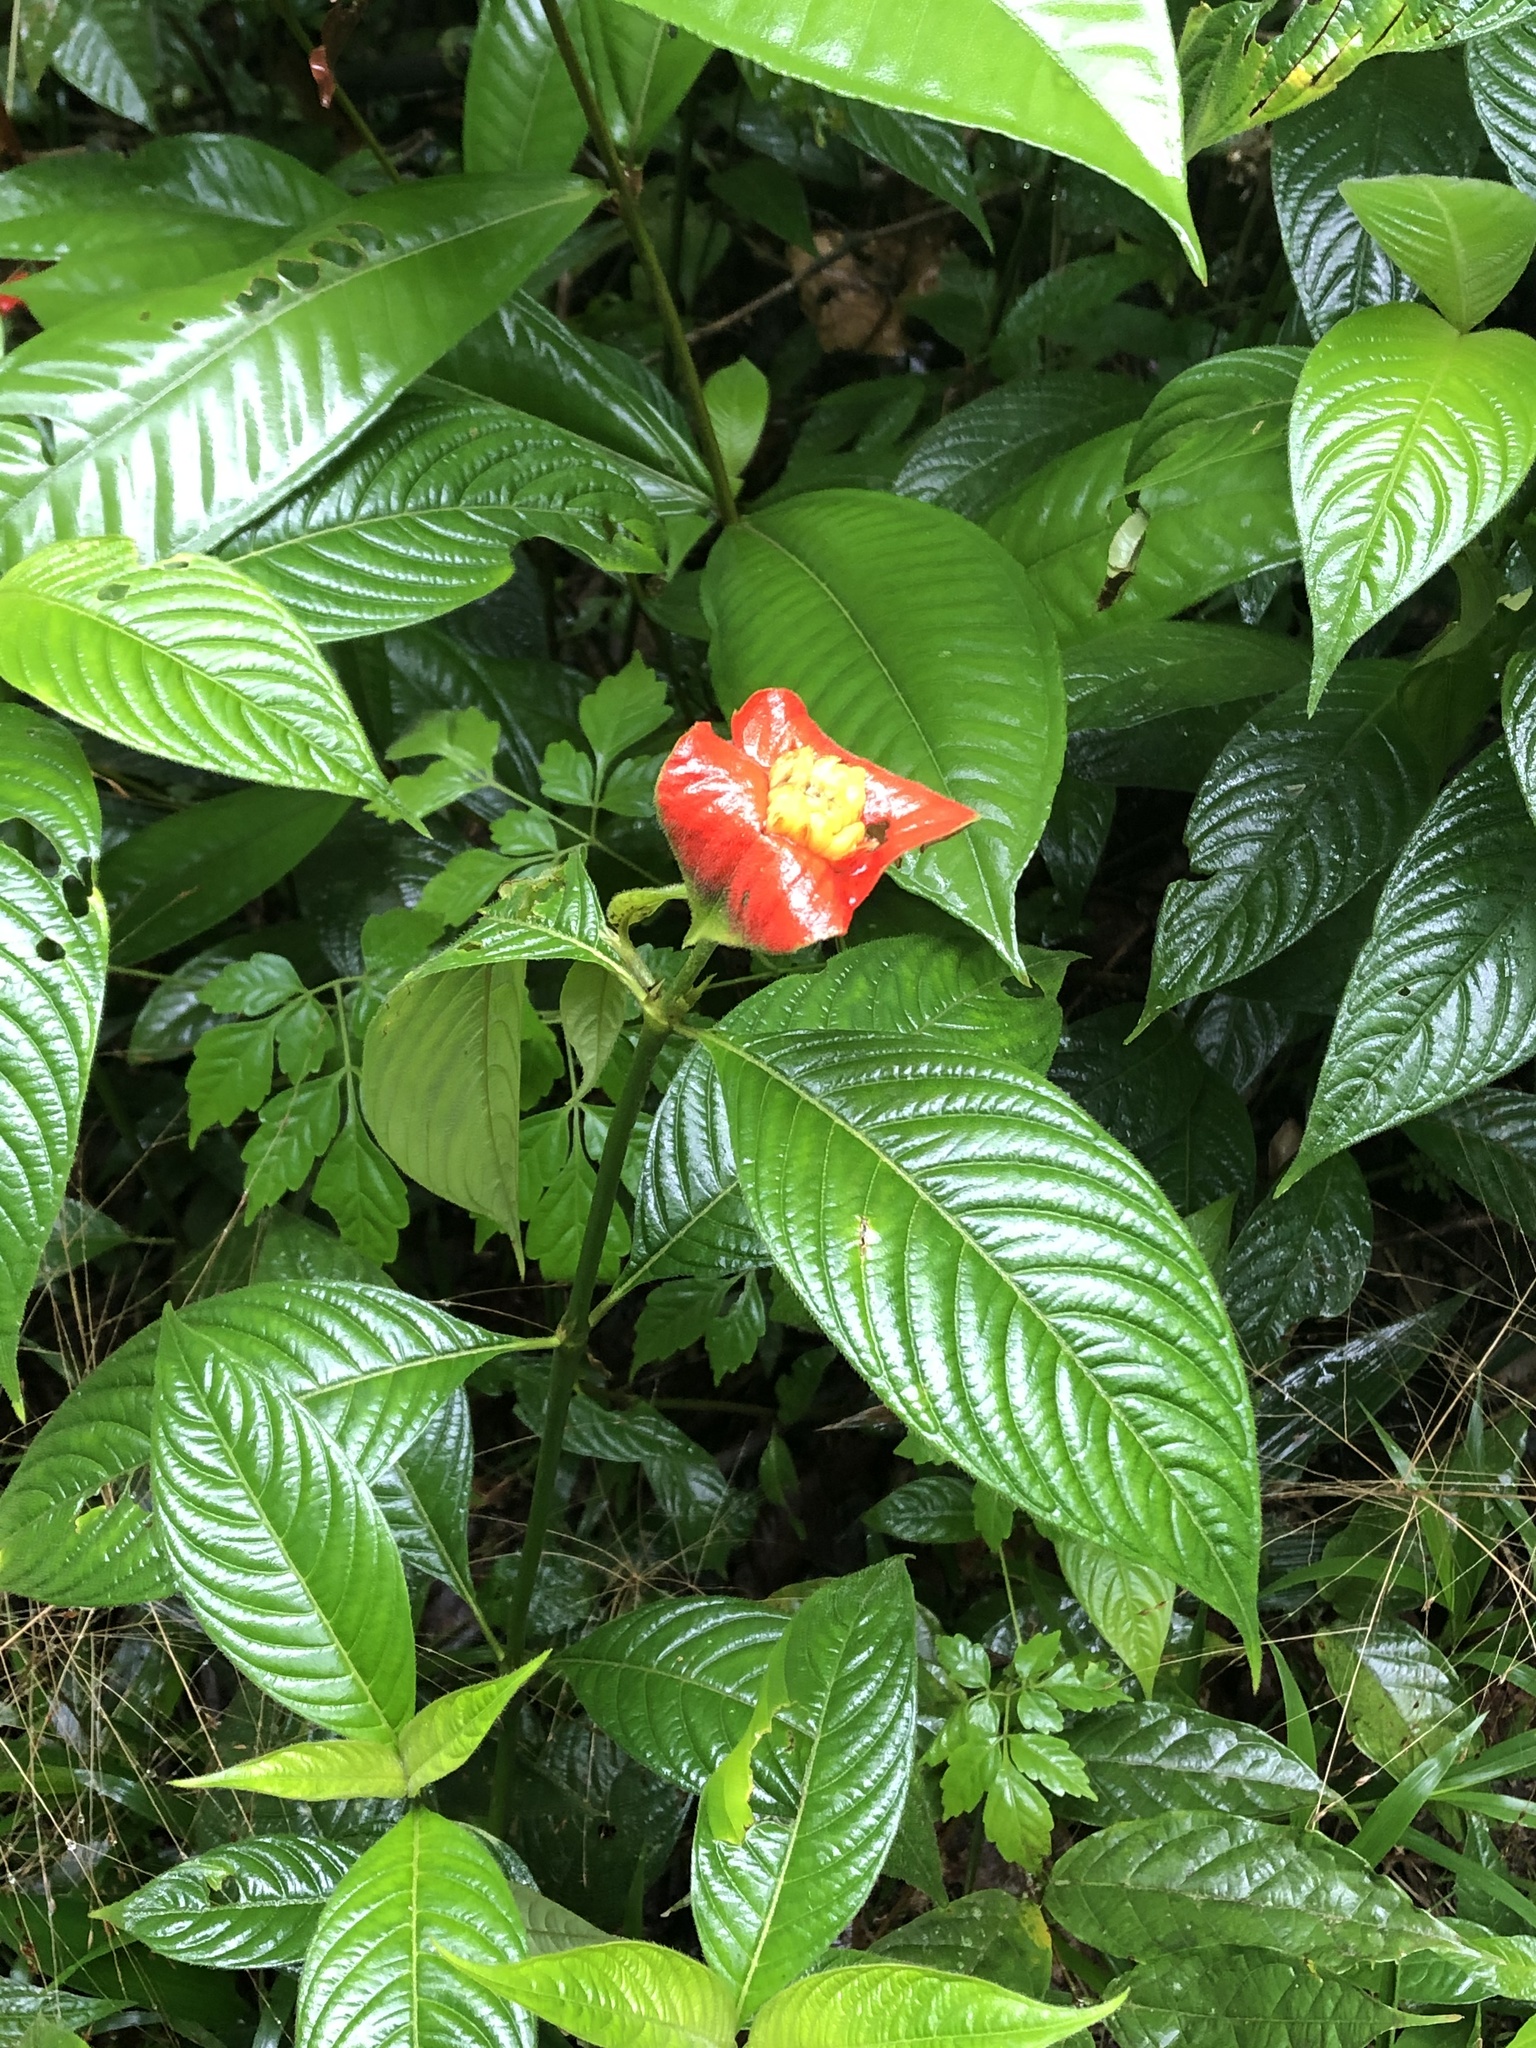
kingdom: Plantae
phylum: Tracheophyta
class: Magnoliopsida
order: Gentianales
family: Rubiaceae
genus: Palicourea
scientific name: Palicourea tomentosa
